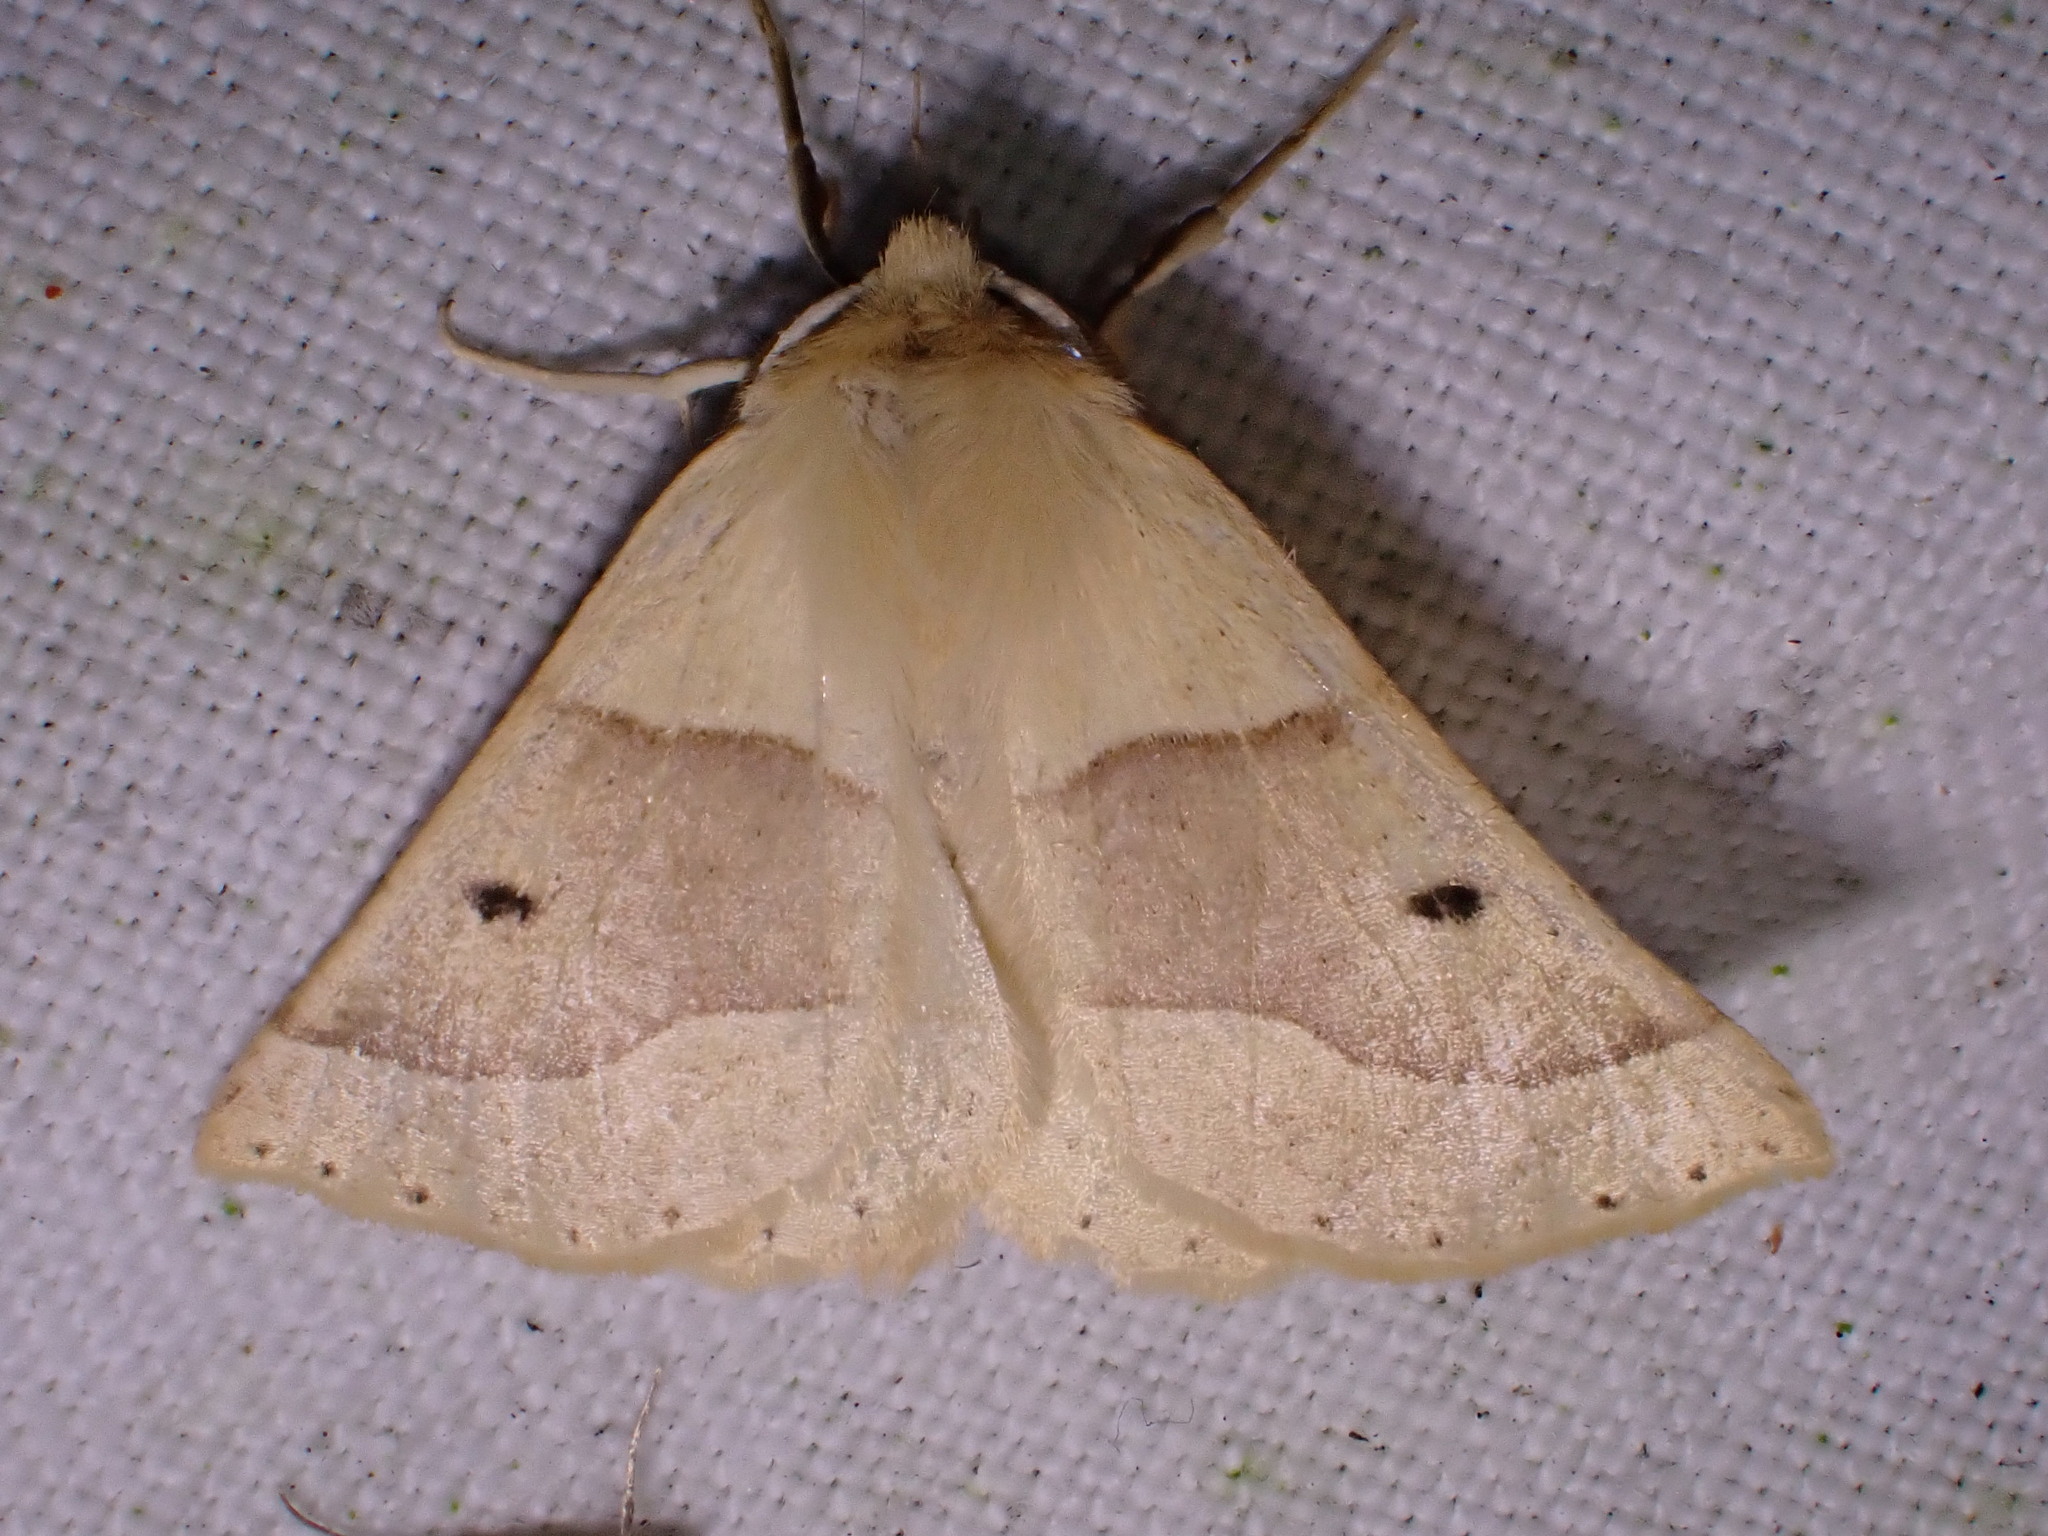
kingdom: Animalia
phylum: Arthropoda
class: Insecta
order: Lepidoptera
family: Geometridae
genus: Crocallis
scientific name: Crocallis elinguaria
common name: Scalloped oak
